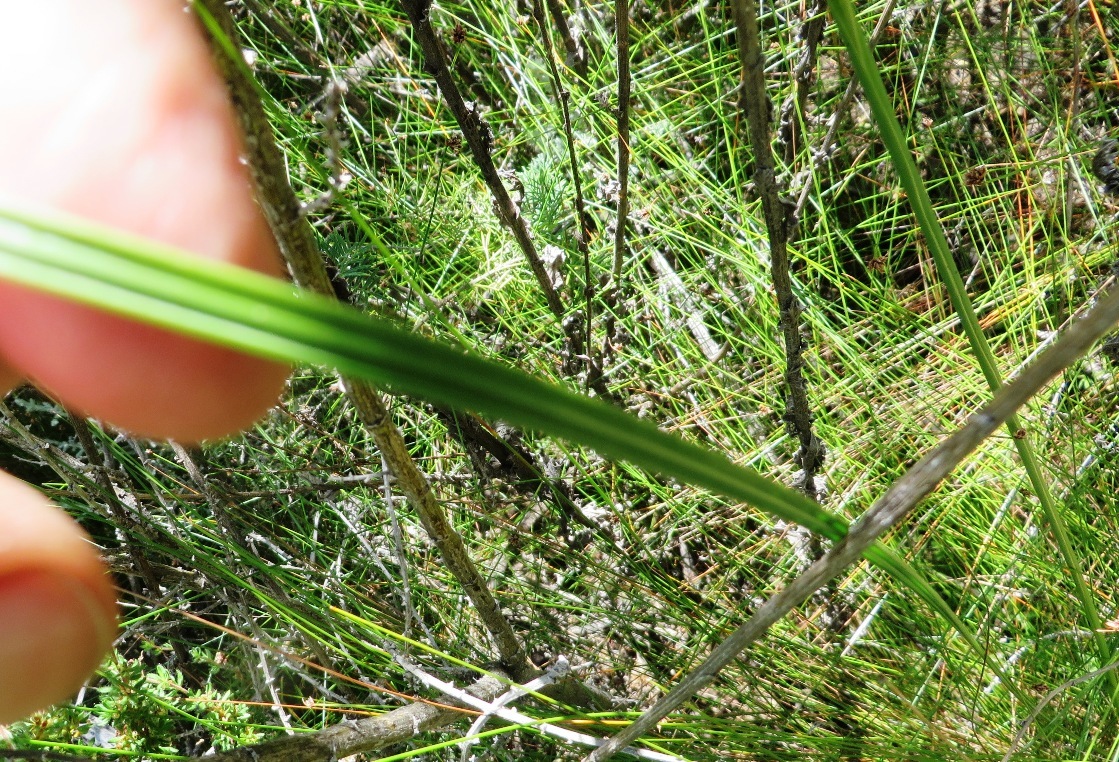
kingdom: Plantae
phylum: Tracheophyta
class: Liliopsida
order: Asparagales
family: Iridaceae
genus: Gladiolus
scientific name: Gladiolus liliaceus
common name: Large brown afrikaner
